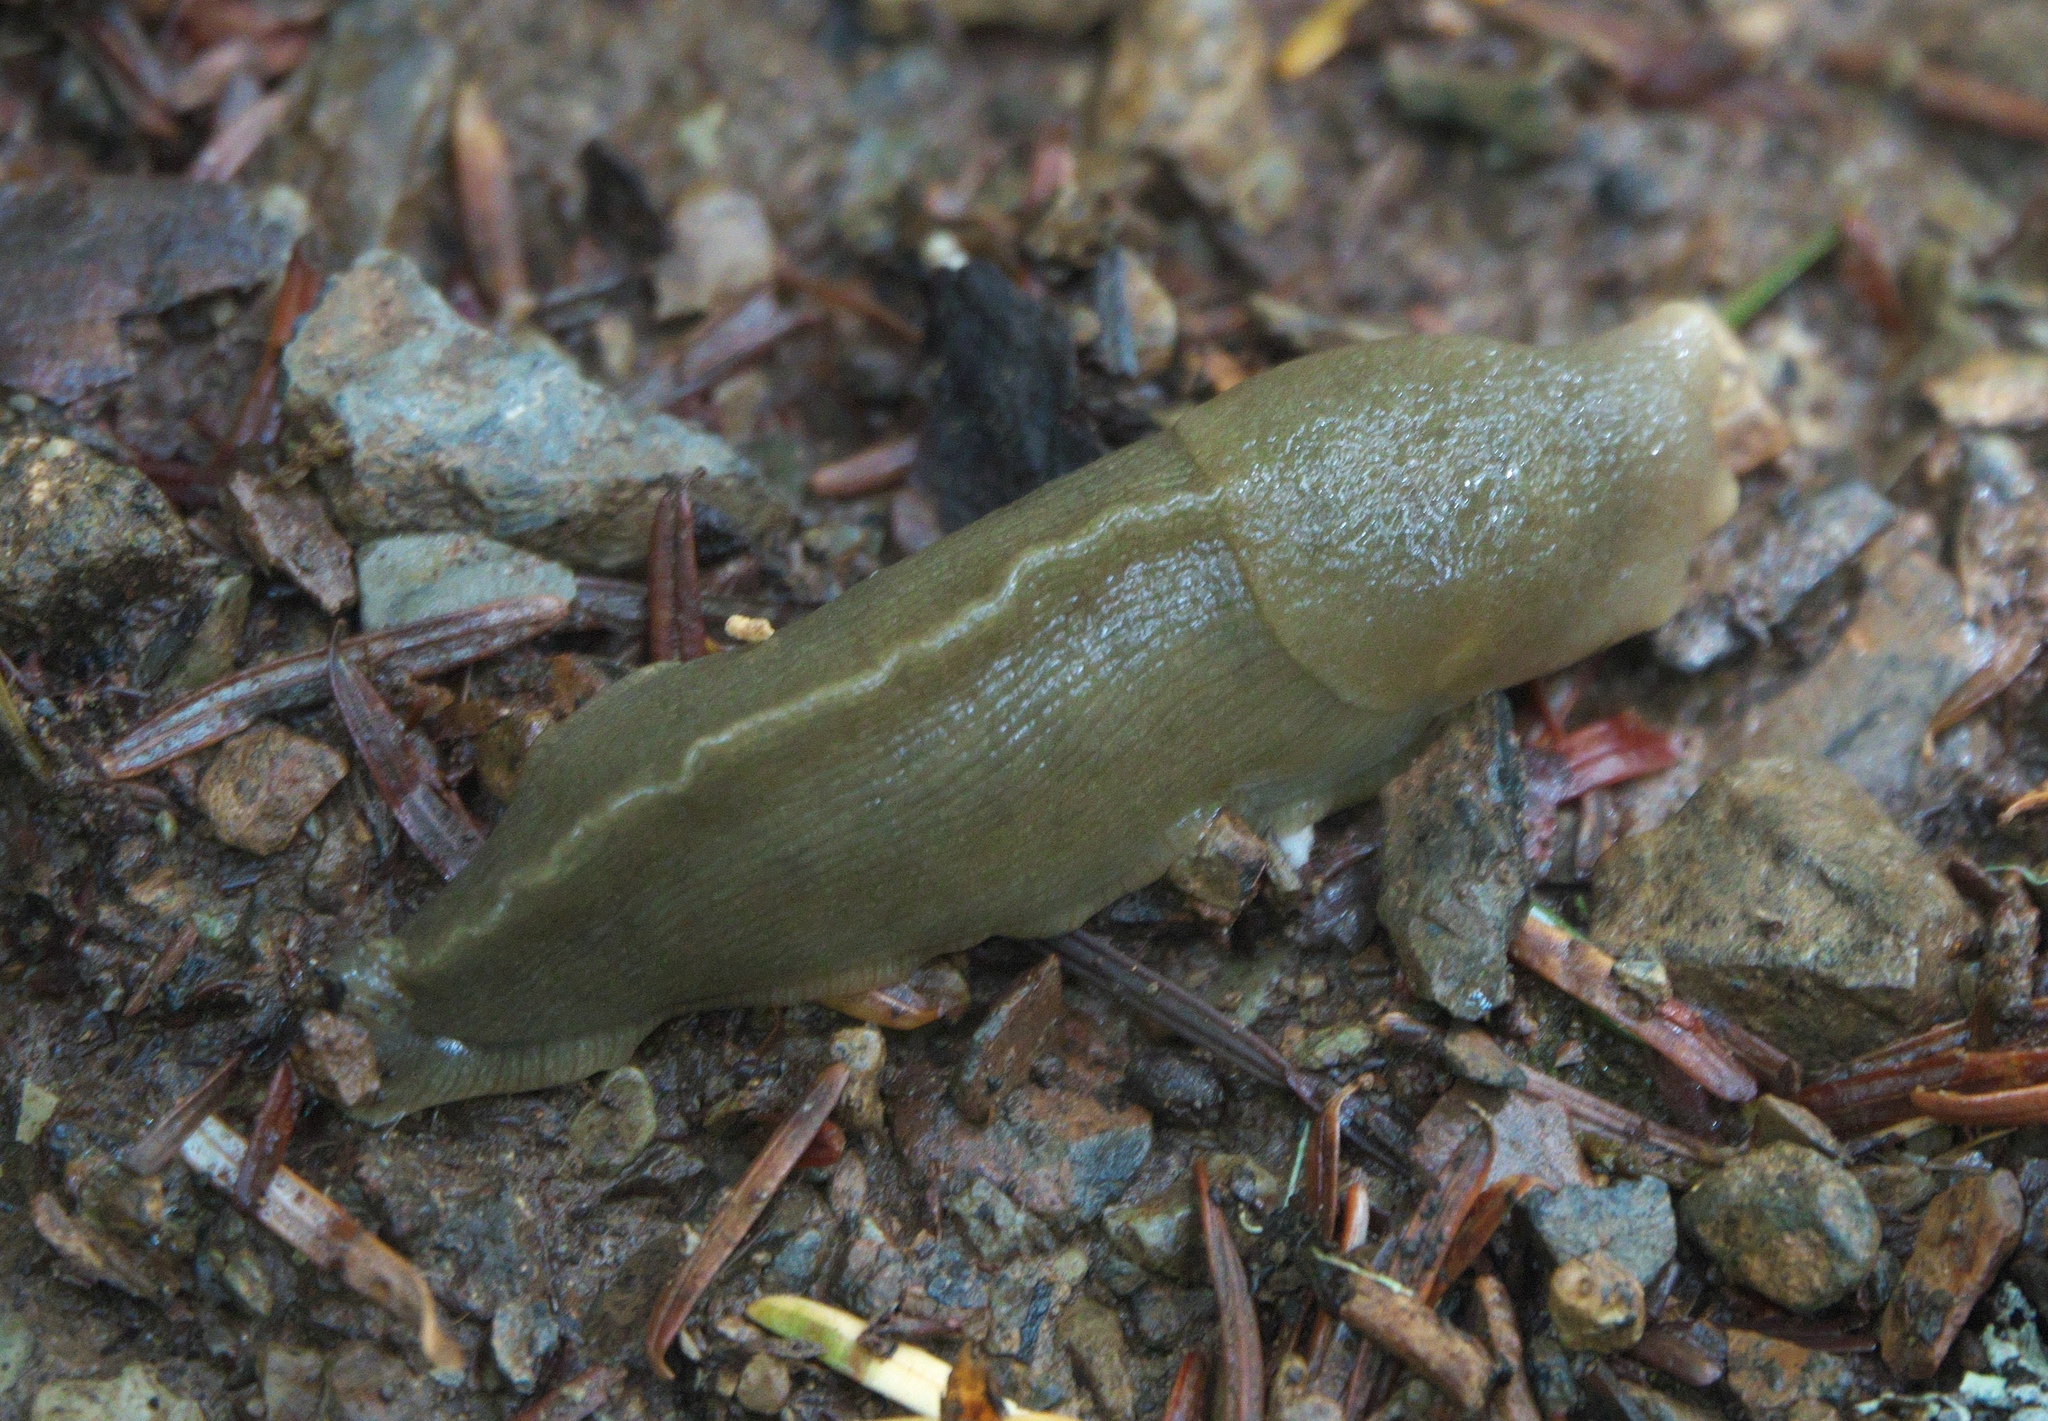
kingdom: Animalia
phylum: Mollusca
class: Gastropoda
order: Stylommatophora
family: Ariolimacidae
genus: Ariolimax
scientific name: Ariolimax columbianus
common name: Pacific banana slug
